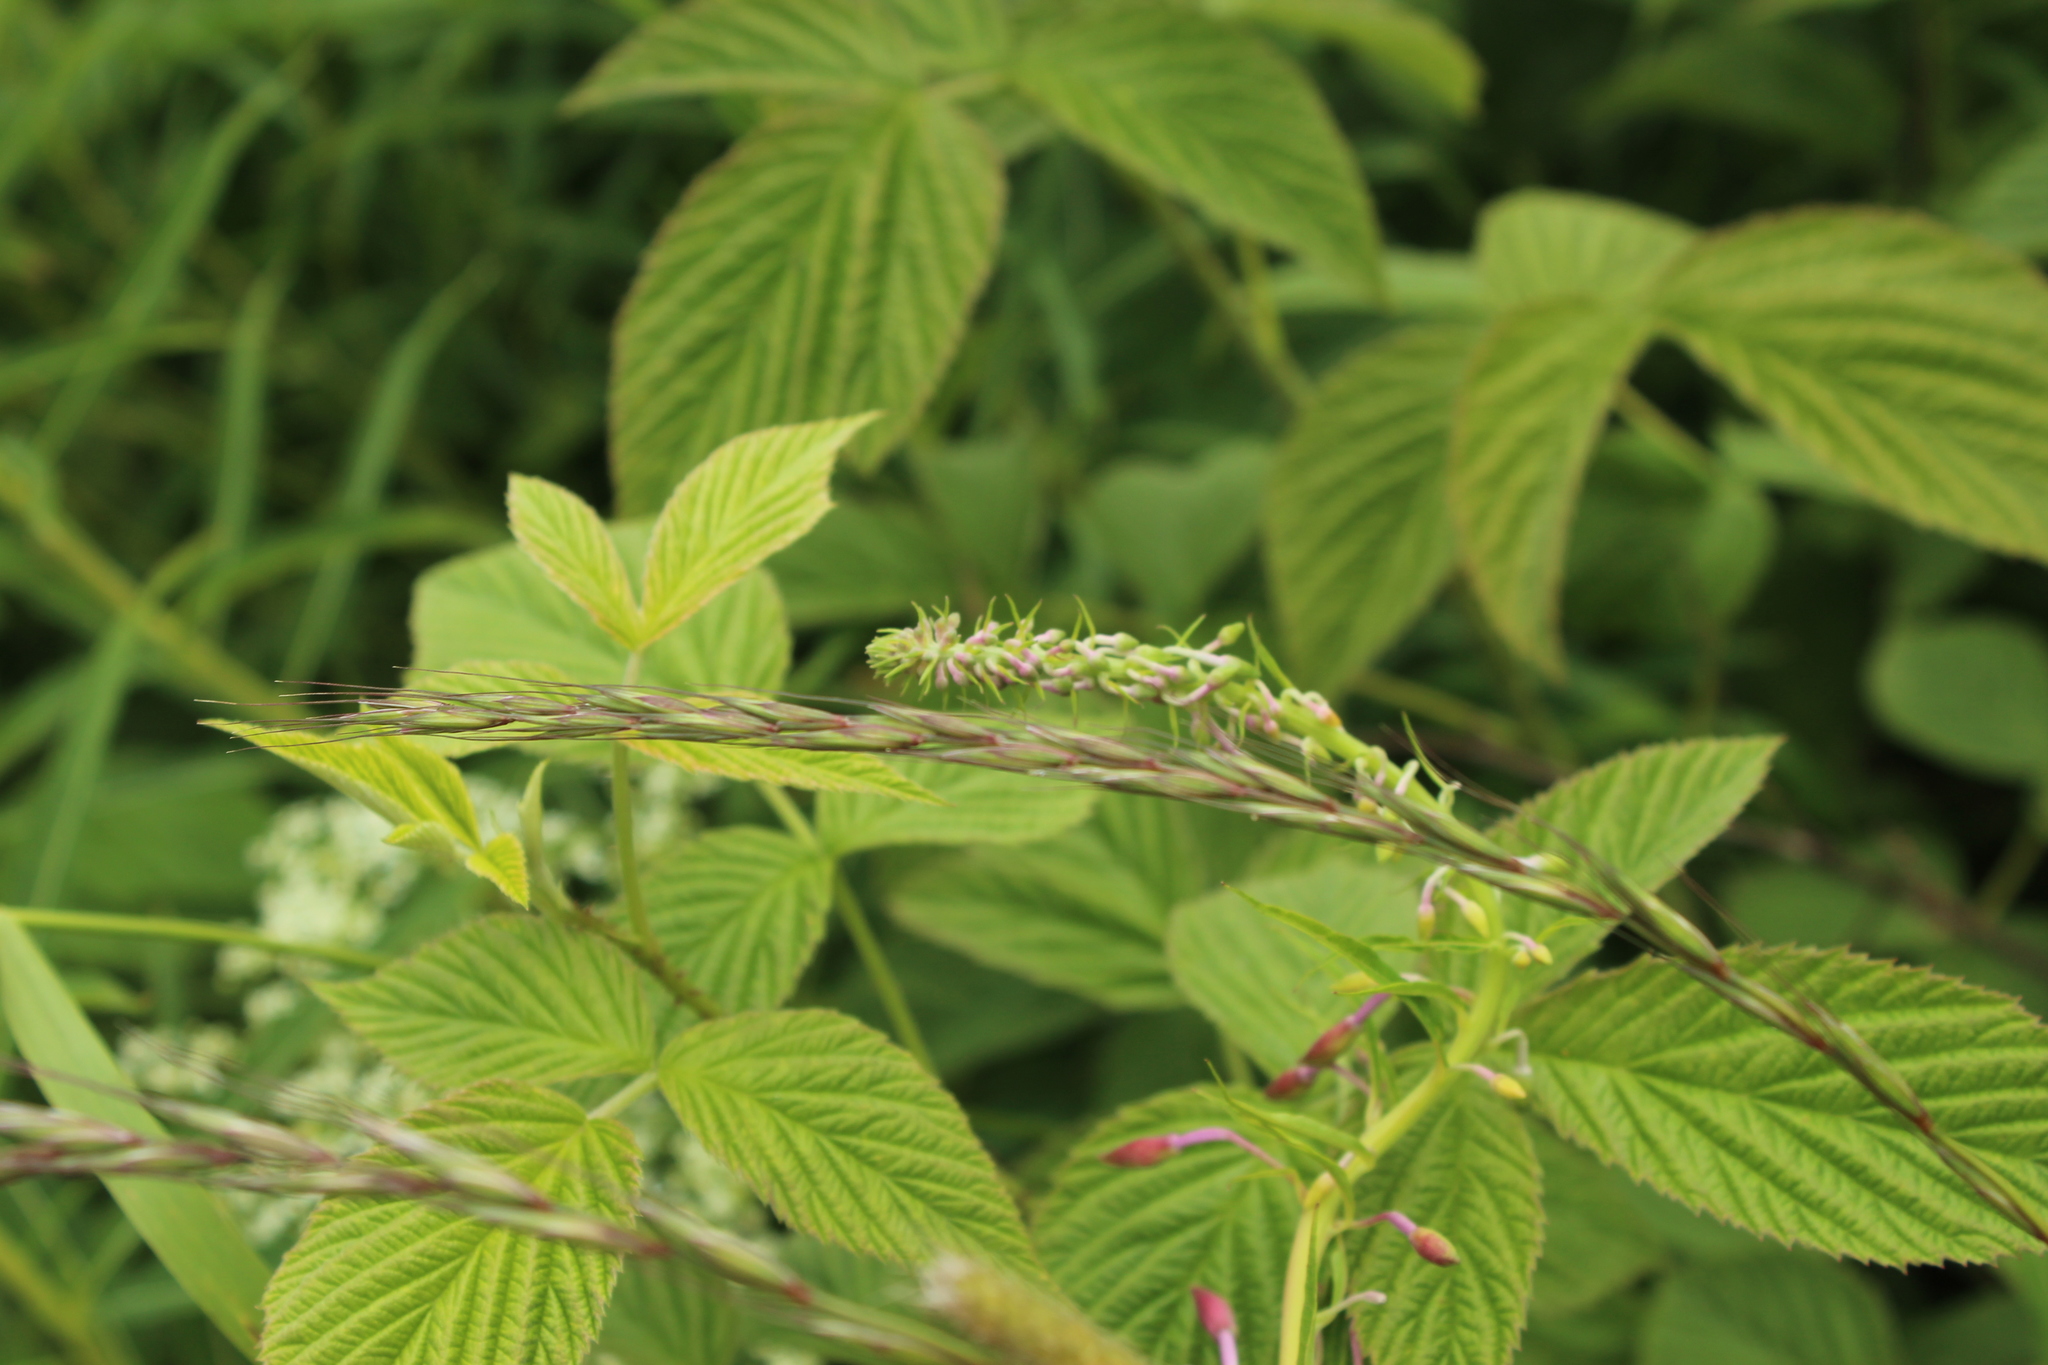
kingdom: Plantae
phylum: Tracheophyta
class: Liliopsida
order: Poales
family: Poaceae
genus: Elymus
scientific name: Elymus caninus
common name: Bearded couch
